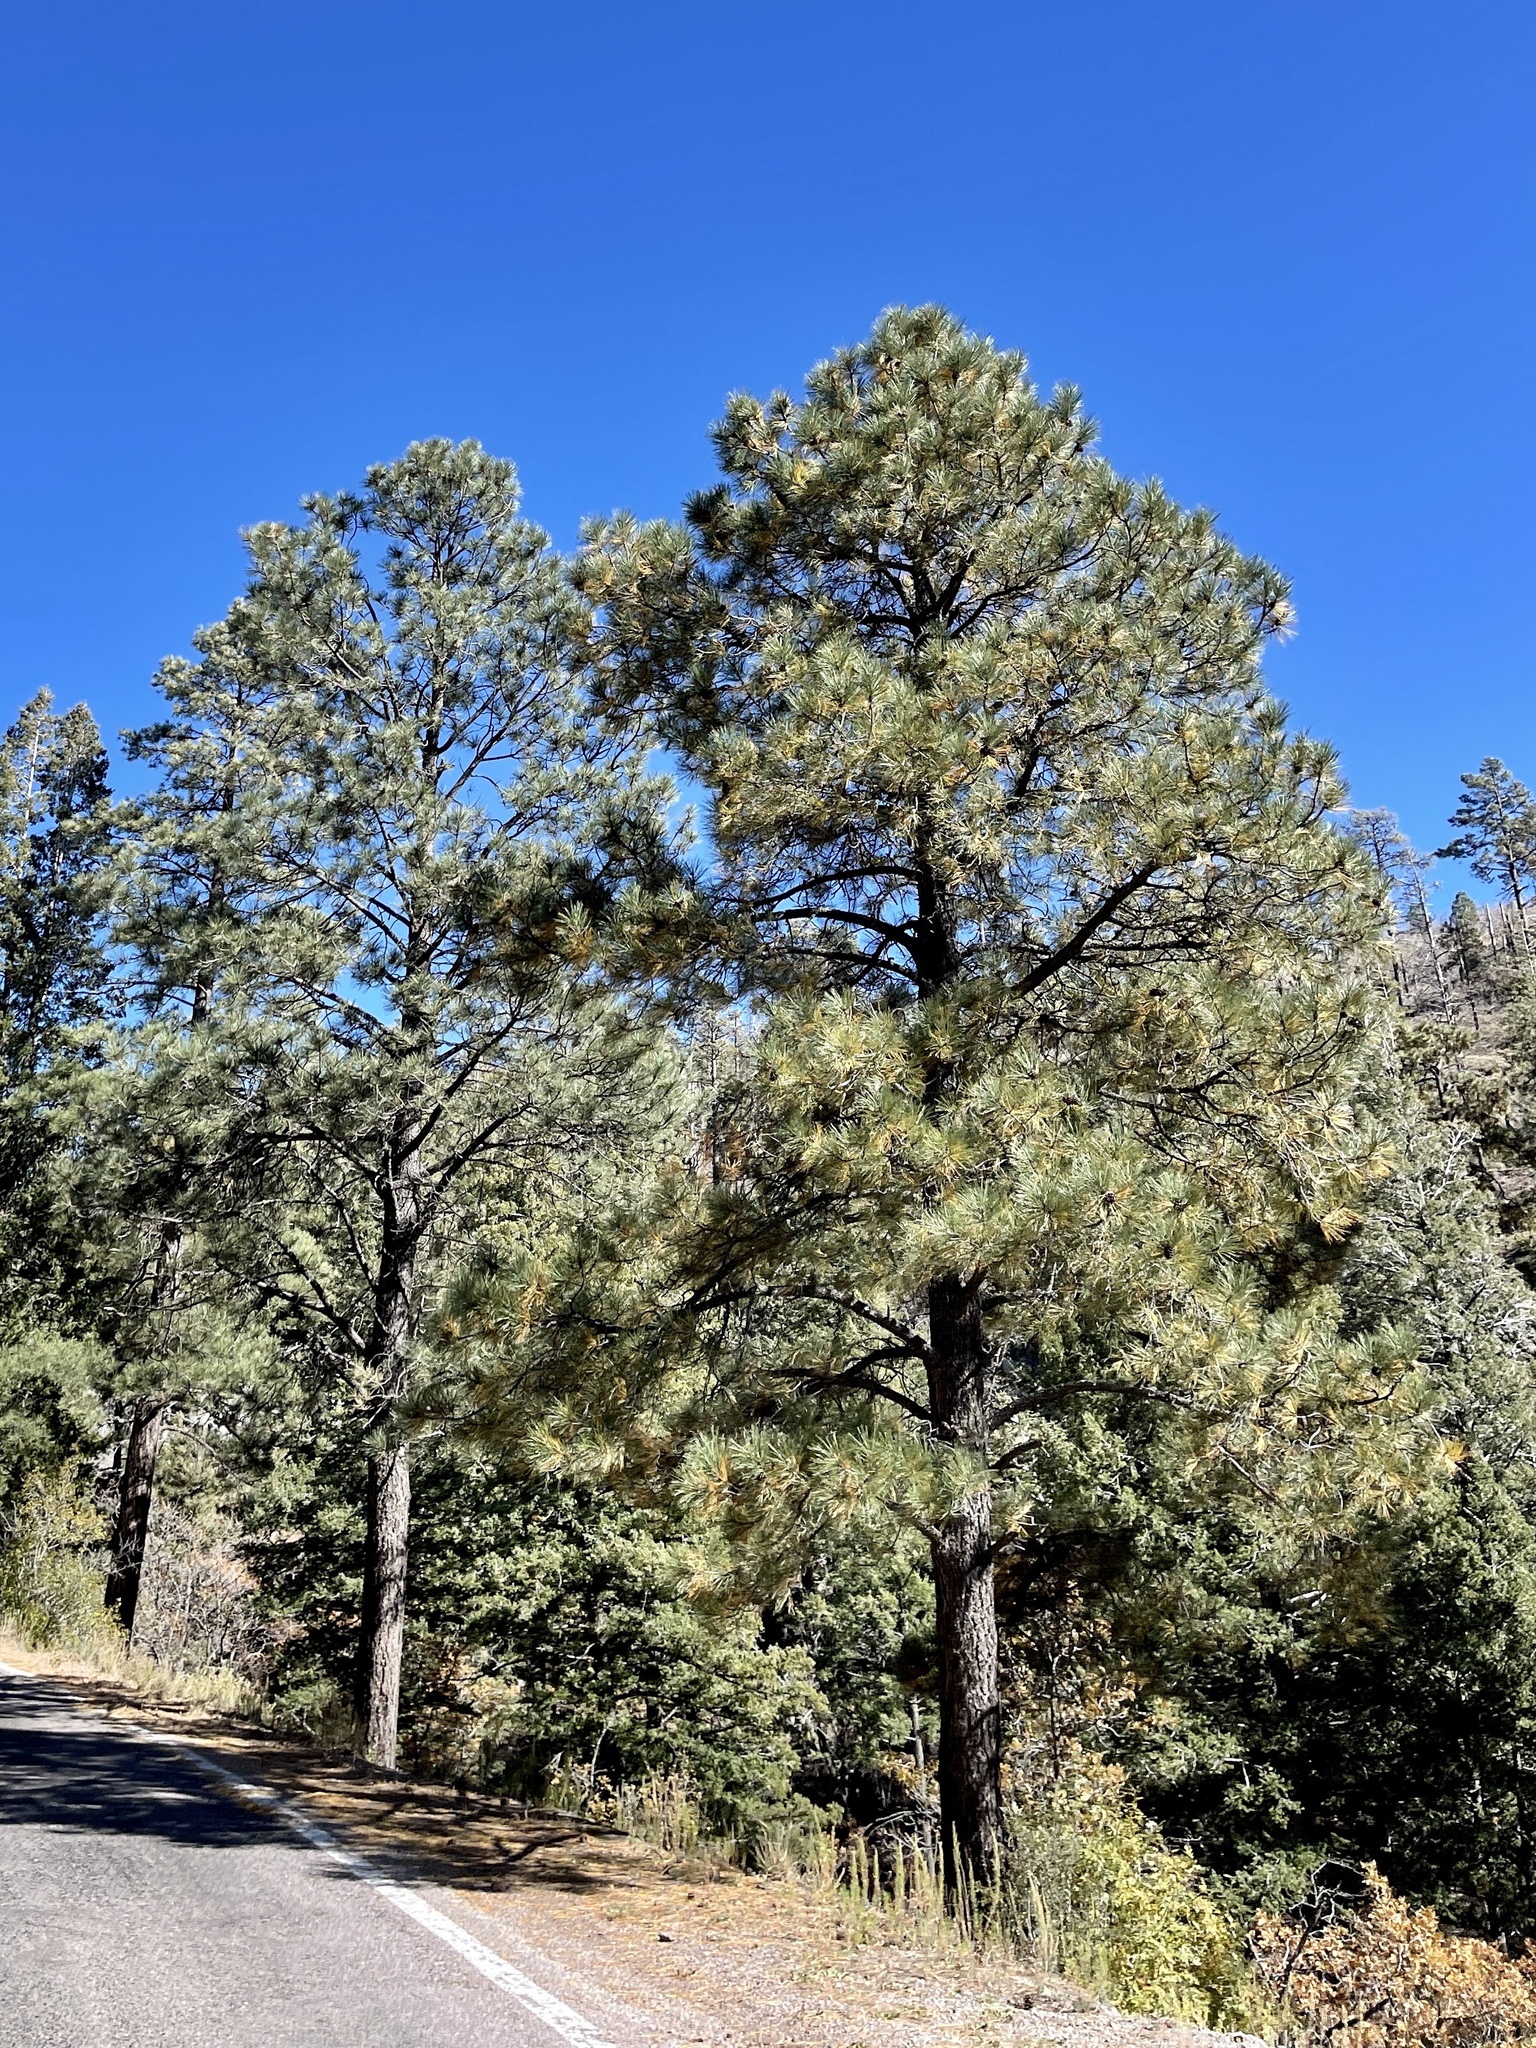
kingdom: Plantae
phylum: Tracheophyta
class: Pinopsida
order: Pinales
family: Pinaceae
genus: Pinus
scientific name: Pinus ponderosa
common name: Western yellow-pine
